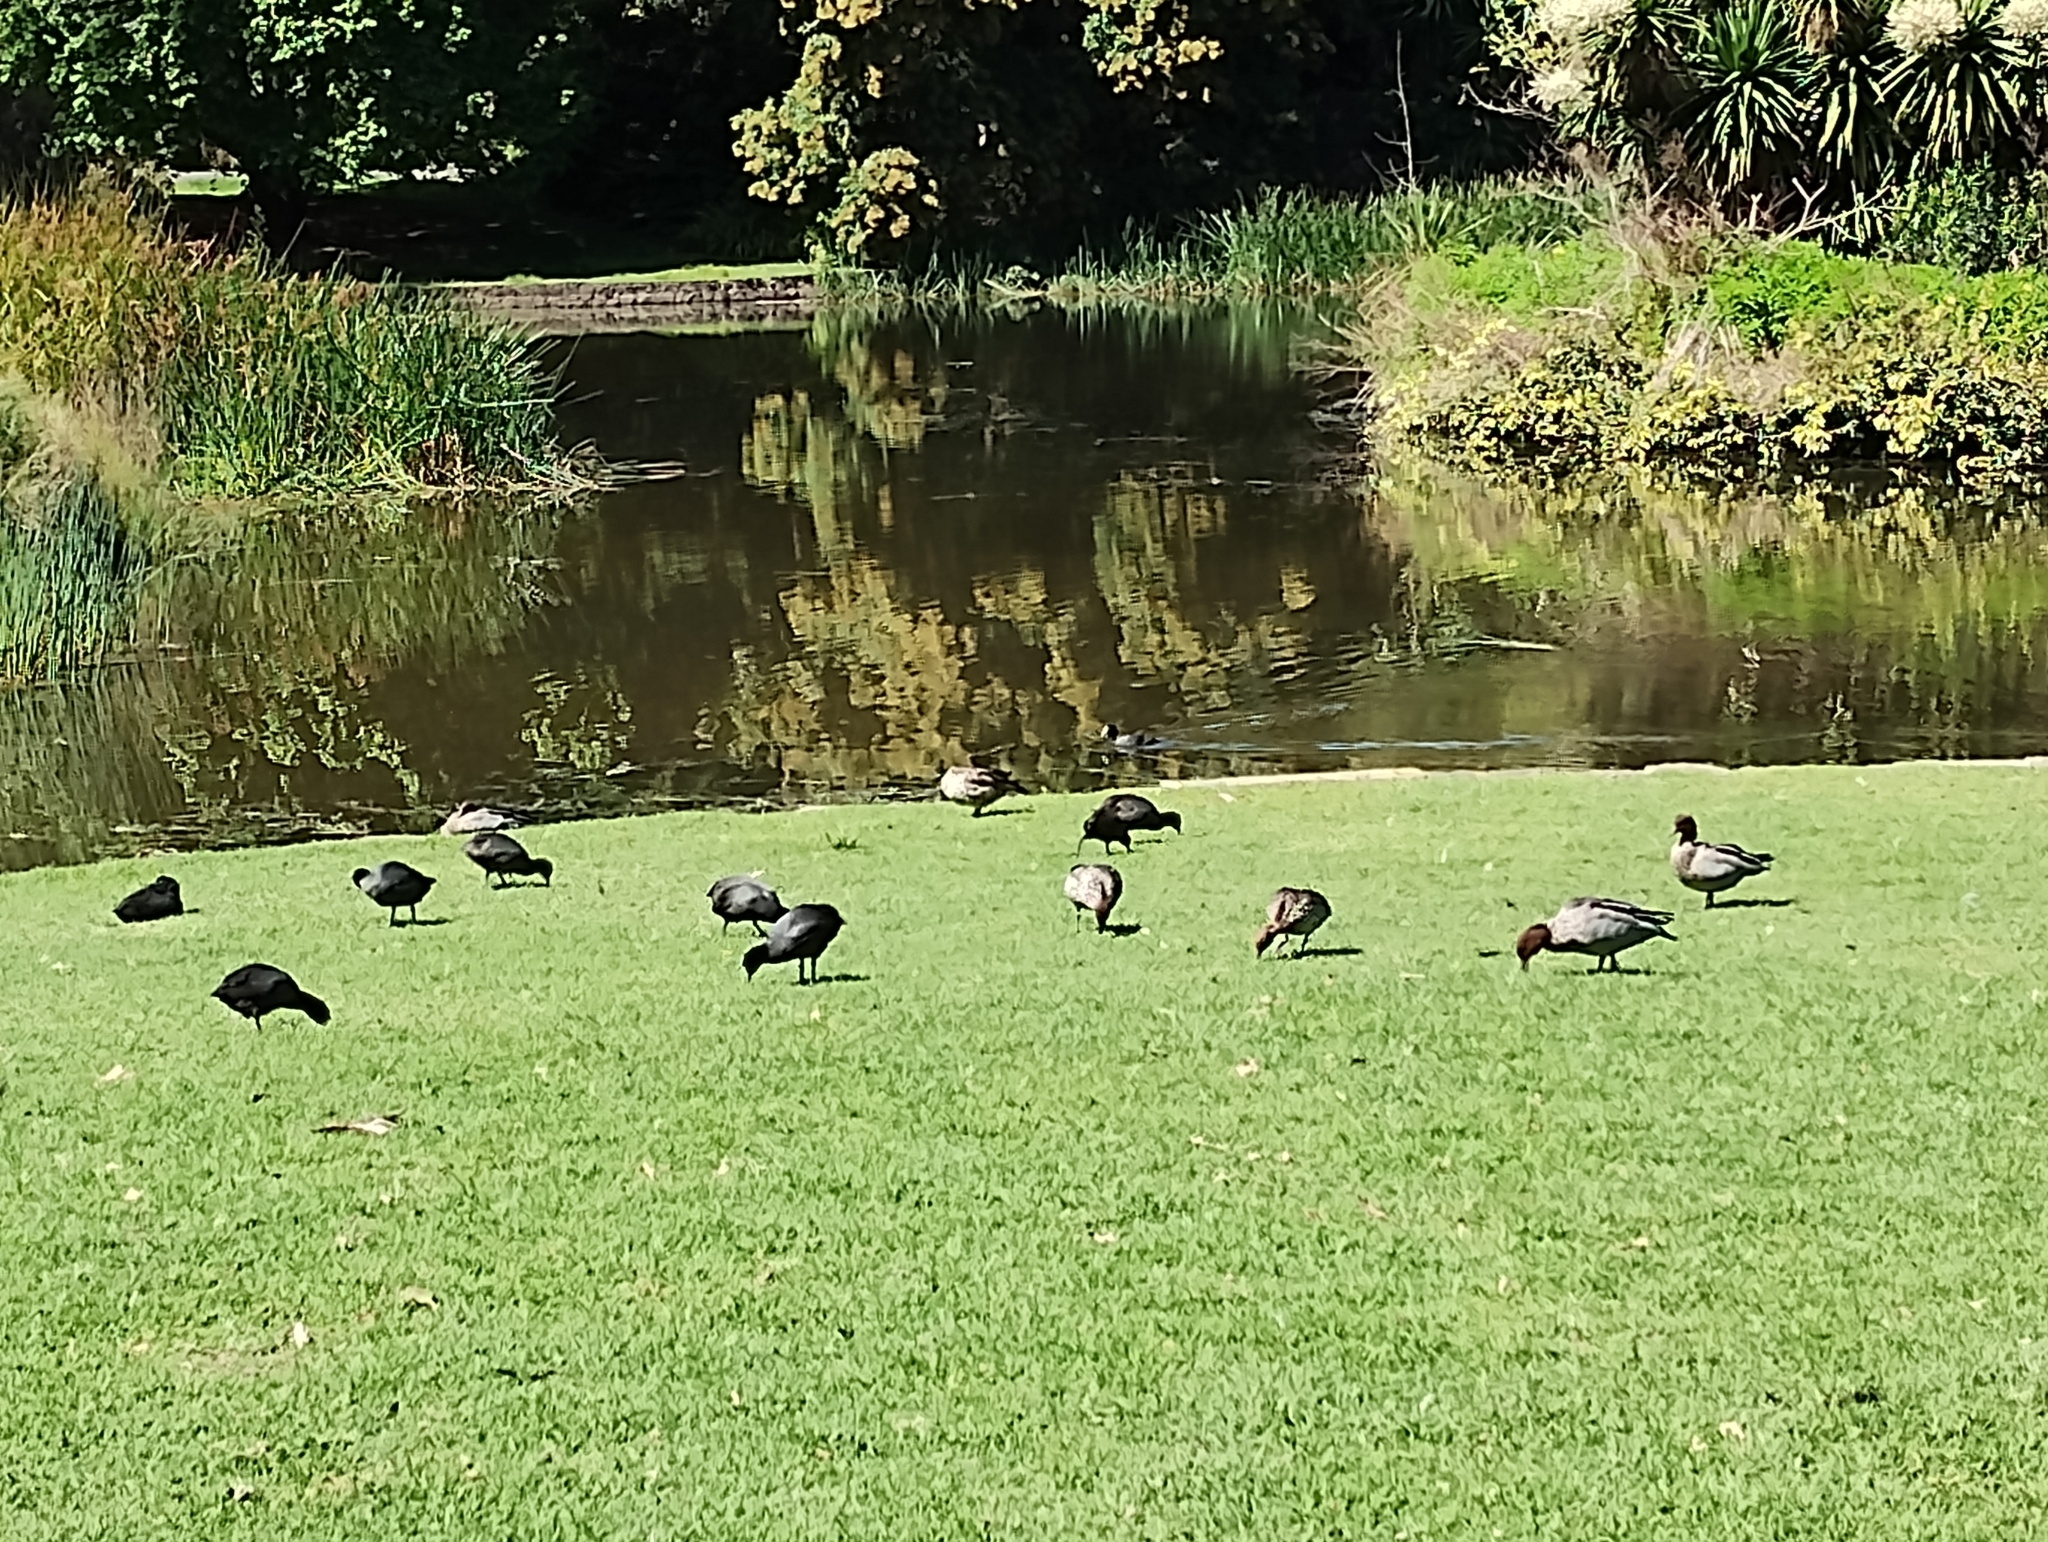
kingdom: Animalia
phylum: Chordata
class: Aves
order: Anseriformes
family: Anatidae
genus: Chenonetta
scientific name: Chenonetta jubata
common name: Maned duck
